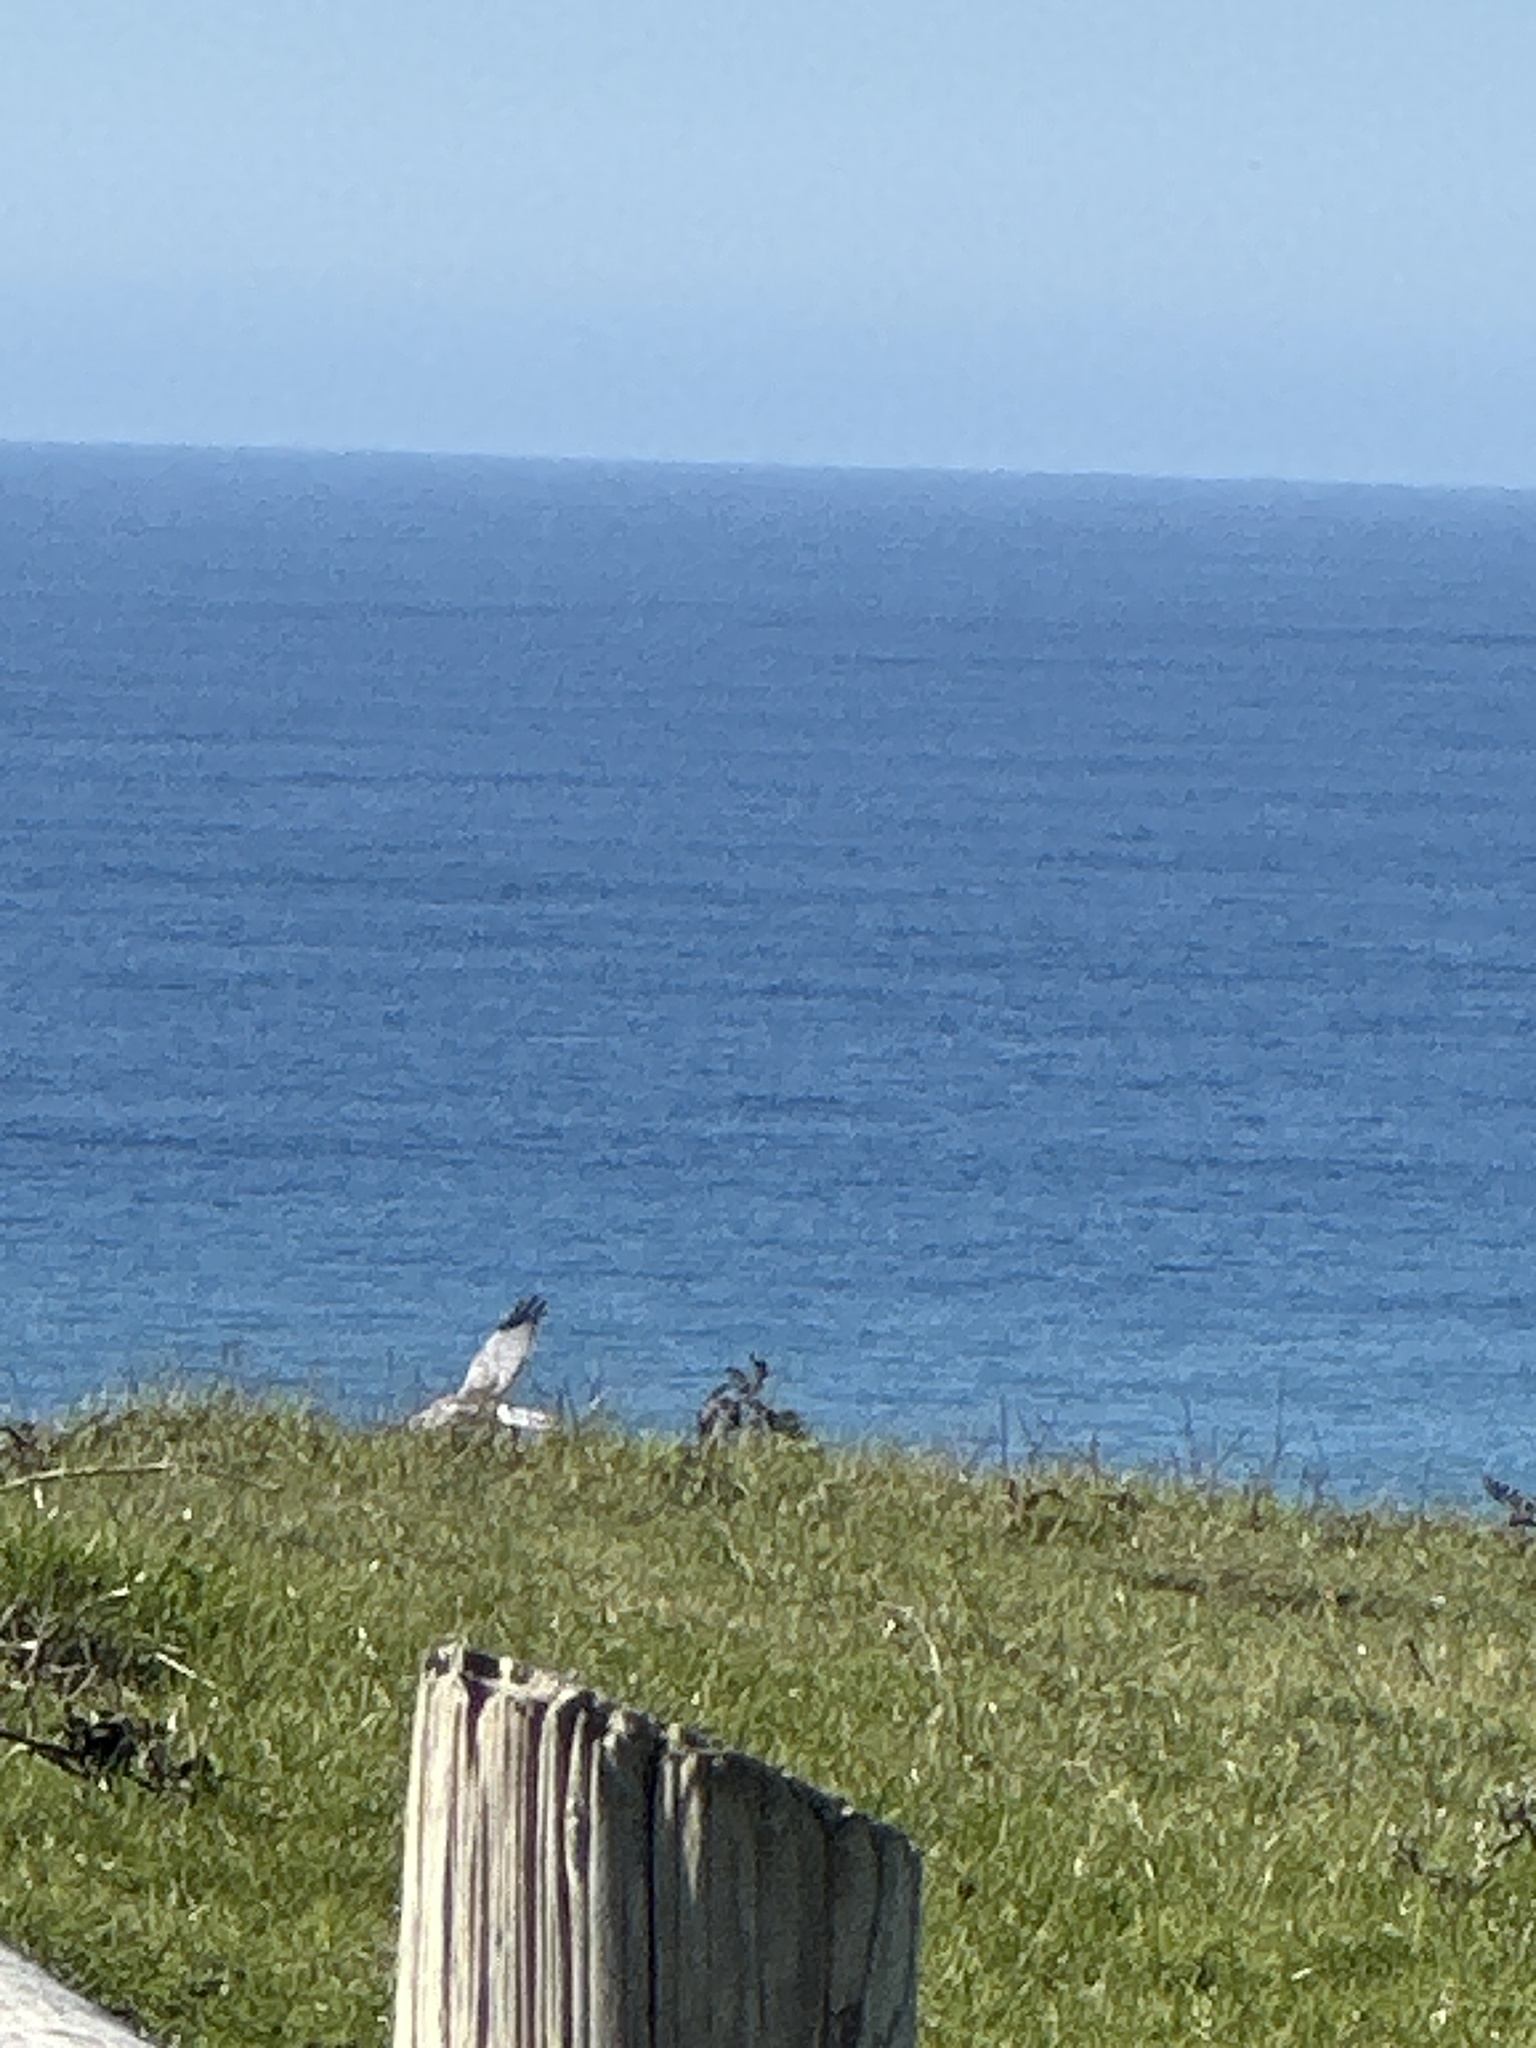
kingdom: Animalia
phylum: Chordata
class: Aves
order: Accipitriformes
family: Accipitridae
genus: Elanus
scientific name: Elanus leucurus
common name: White-tailed kite
